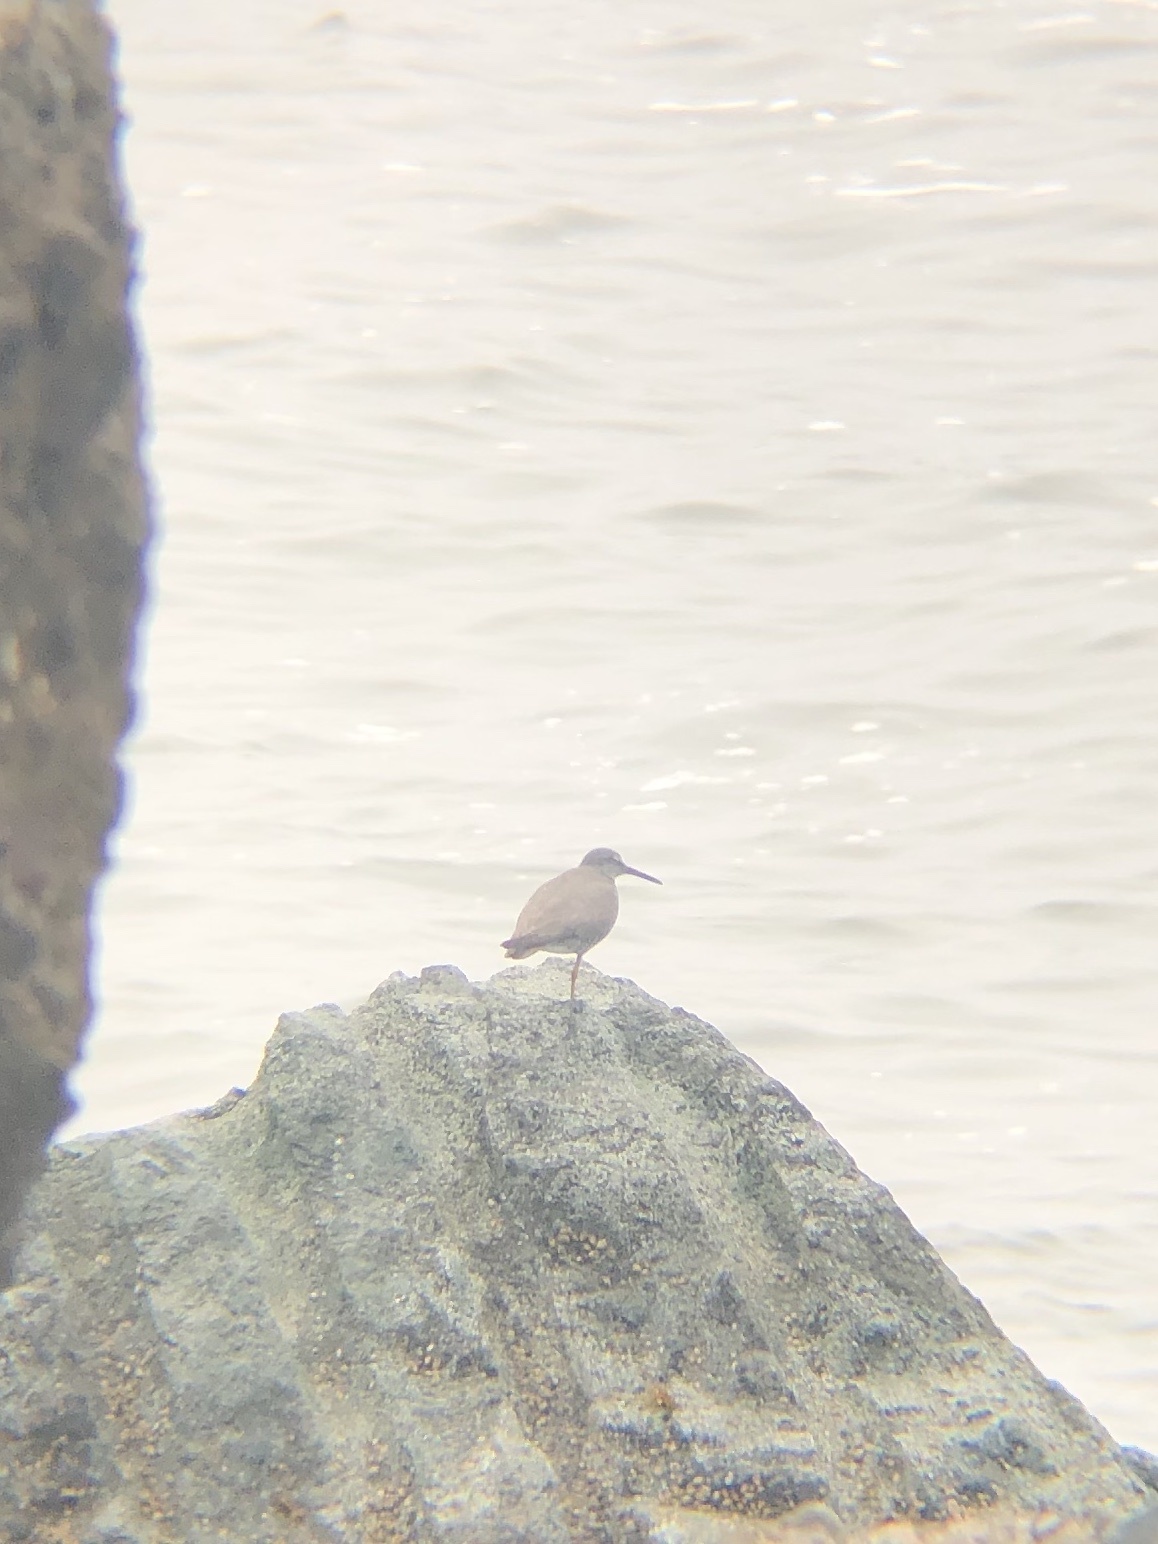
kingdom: Animalia
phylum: Chordata
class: Aves
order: Charadriiformes
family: Scolopacidae
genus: Tringa
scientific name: Tringa incana
